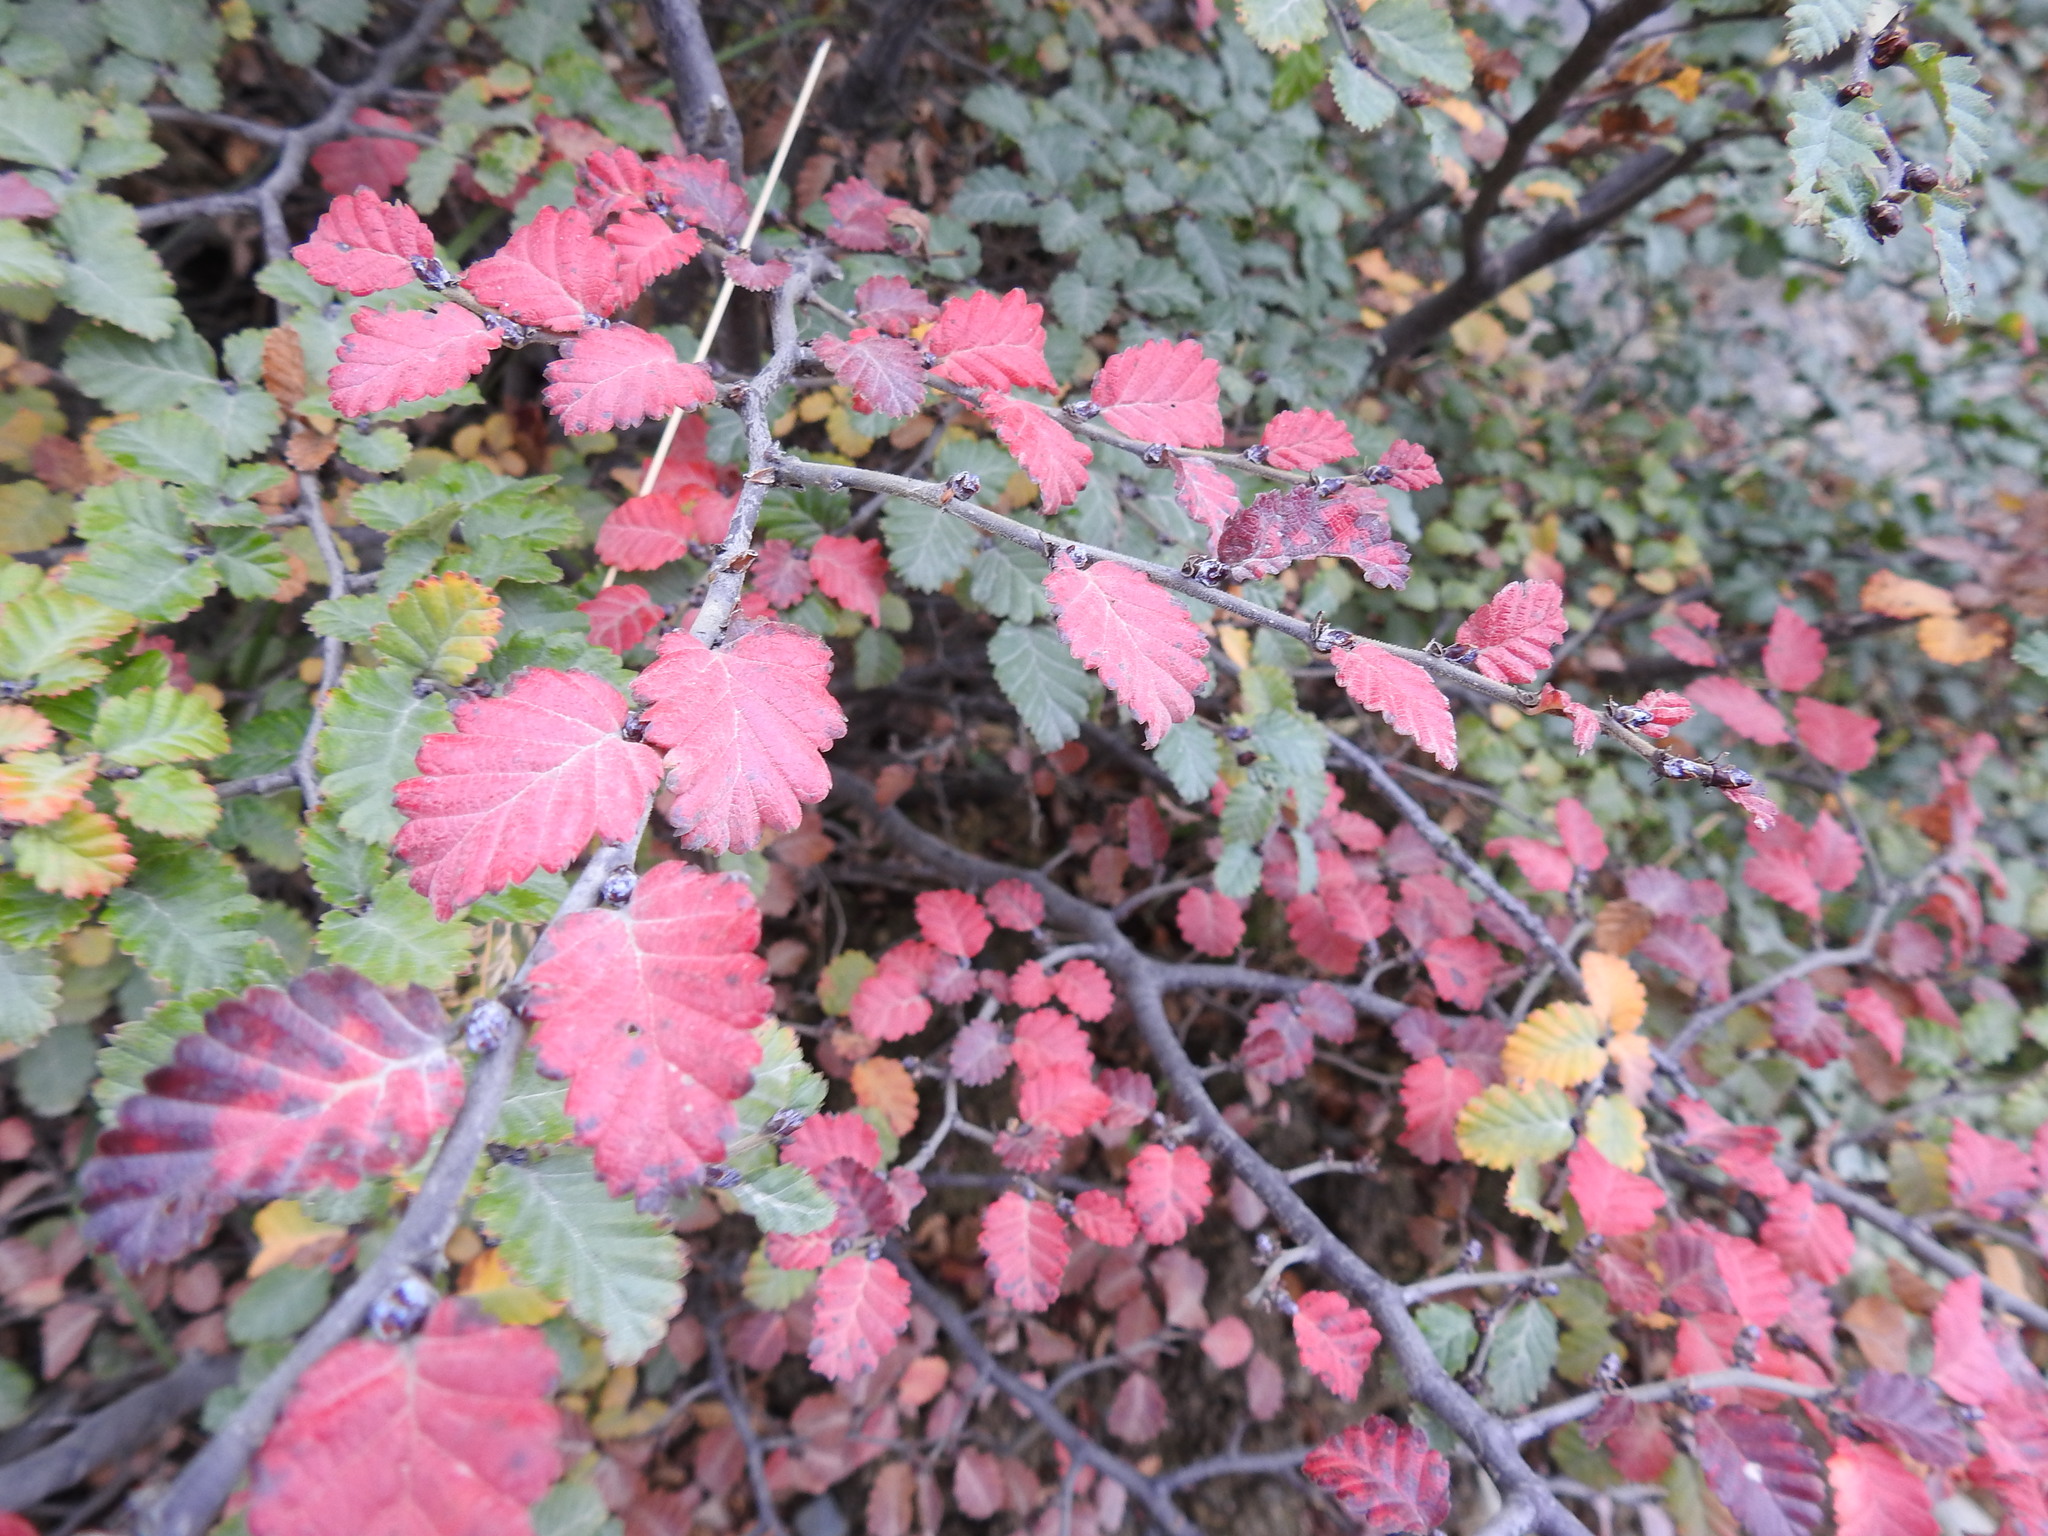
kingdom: Plantae
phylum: Tracheophyta
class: Magnoliopsida
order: Fagales
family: Nothofagaceae
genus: Nothofagus
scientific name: Nothofagus pumilio
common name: Lenga beech
